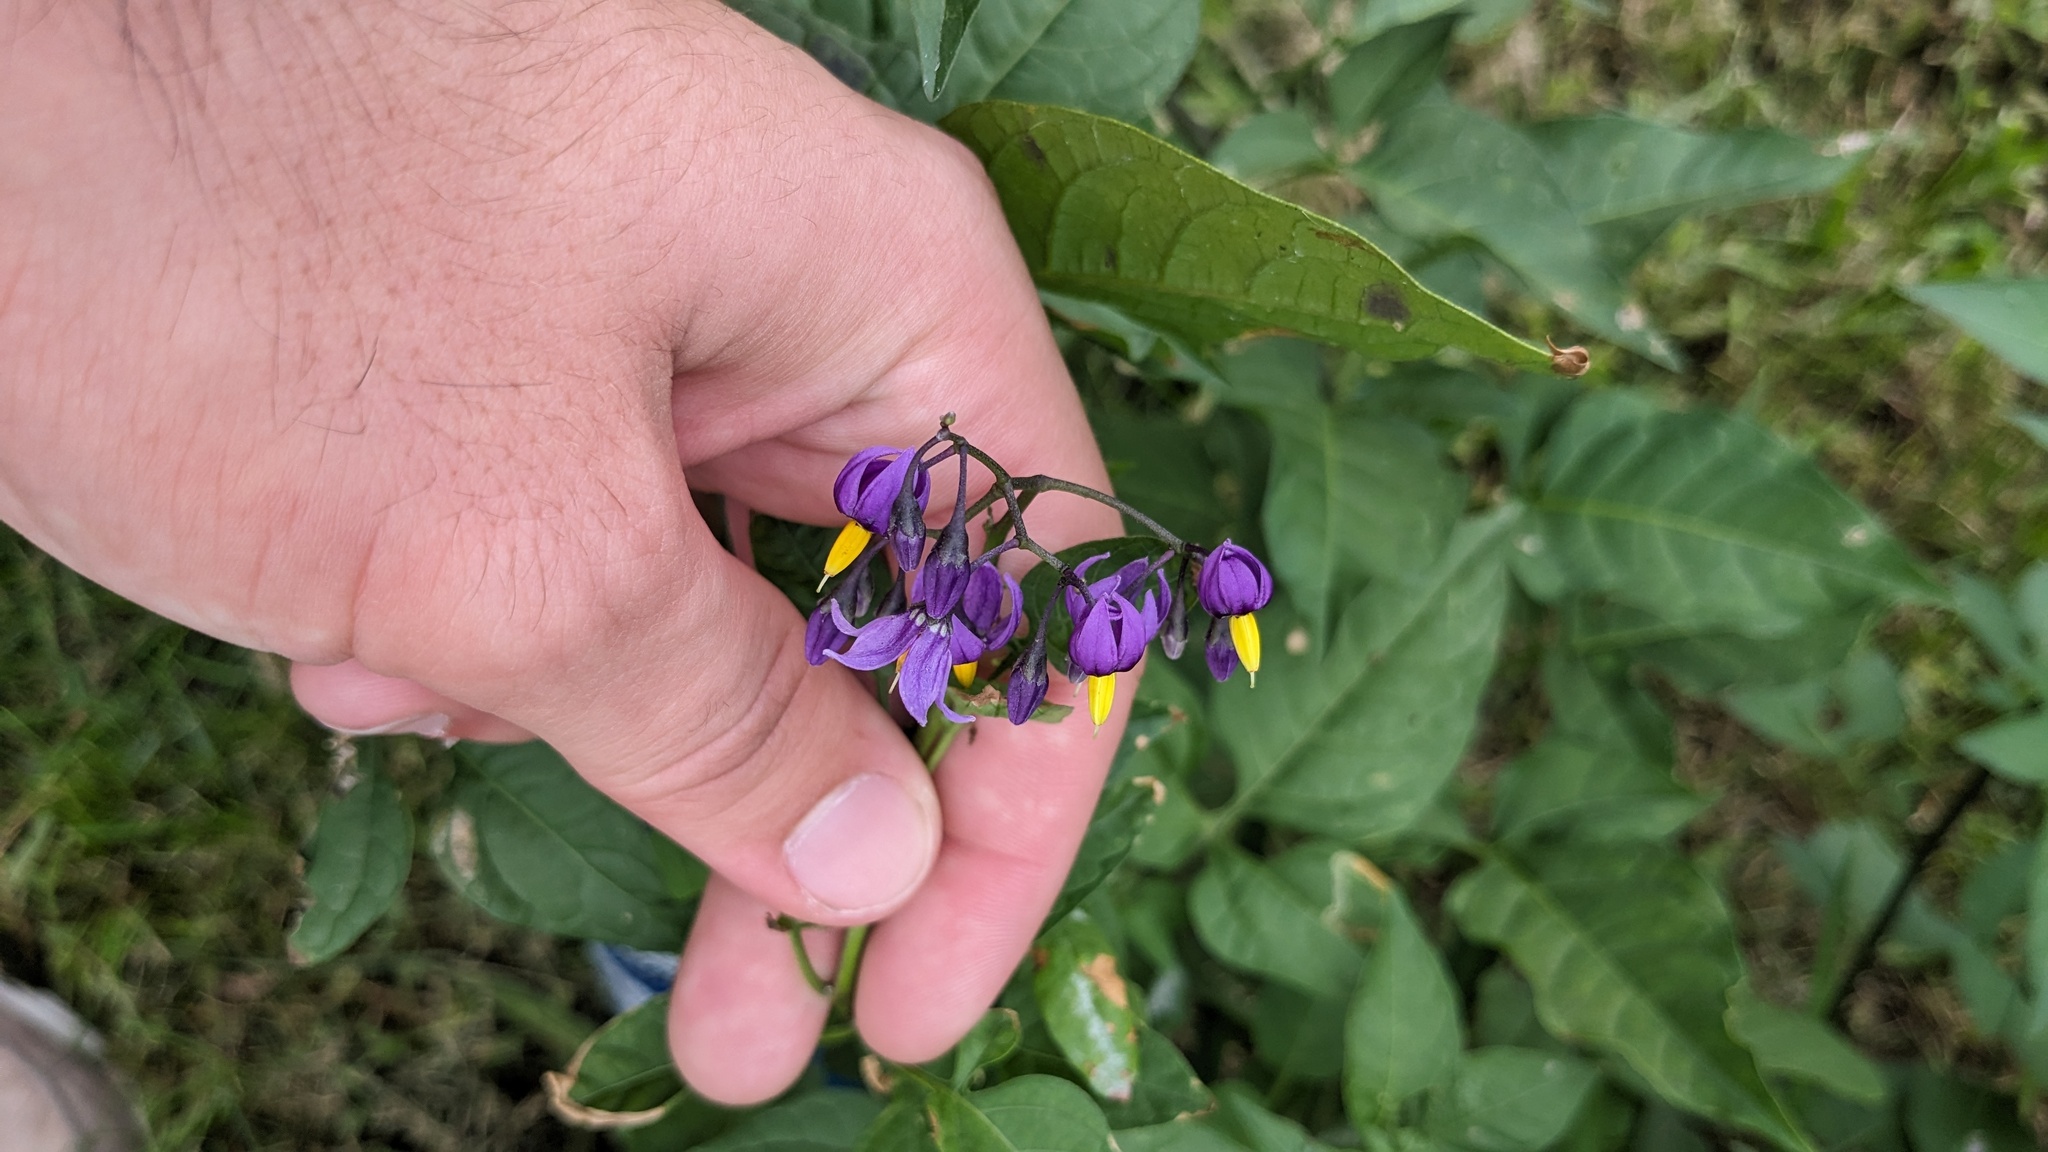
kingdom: Plantae
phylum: Tracheophyta
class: Magnoliopsida
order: Solanales
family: Solanaceae
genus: Solanum
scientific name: Solanum dulcamara
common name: Climbing nightshade
